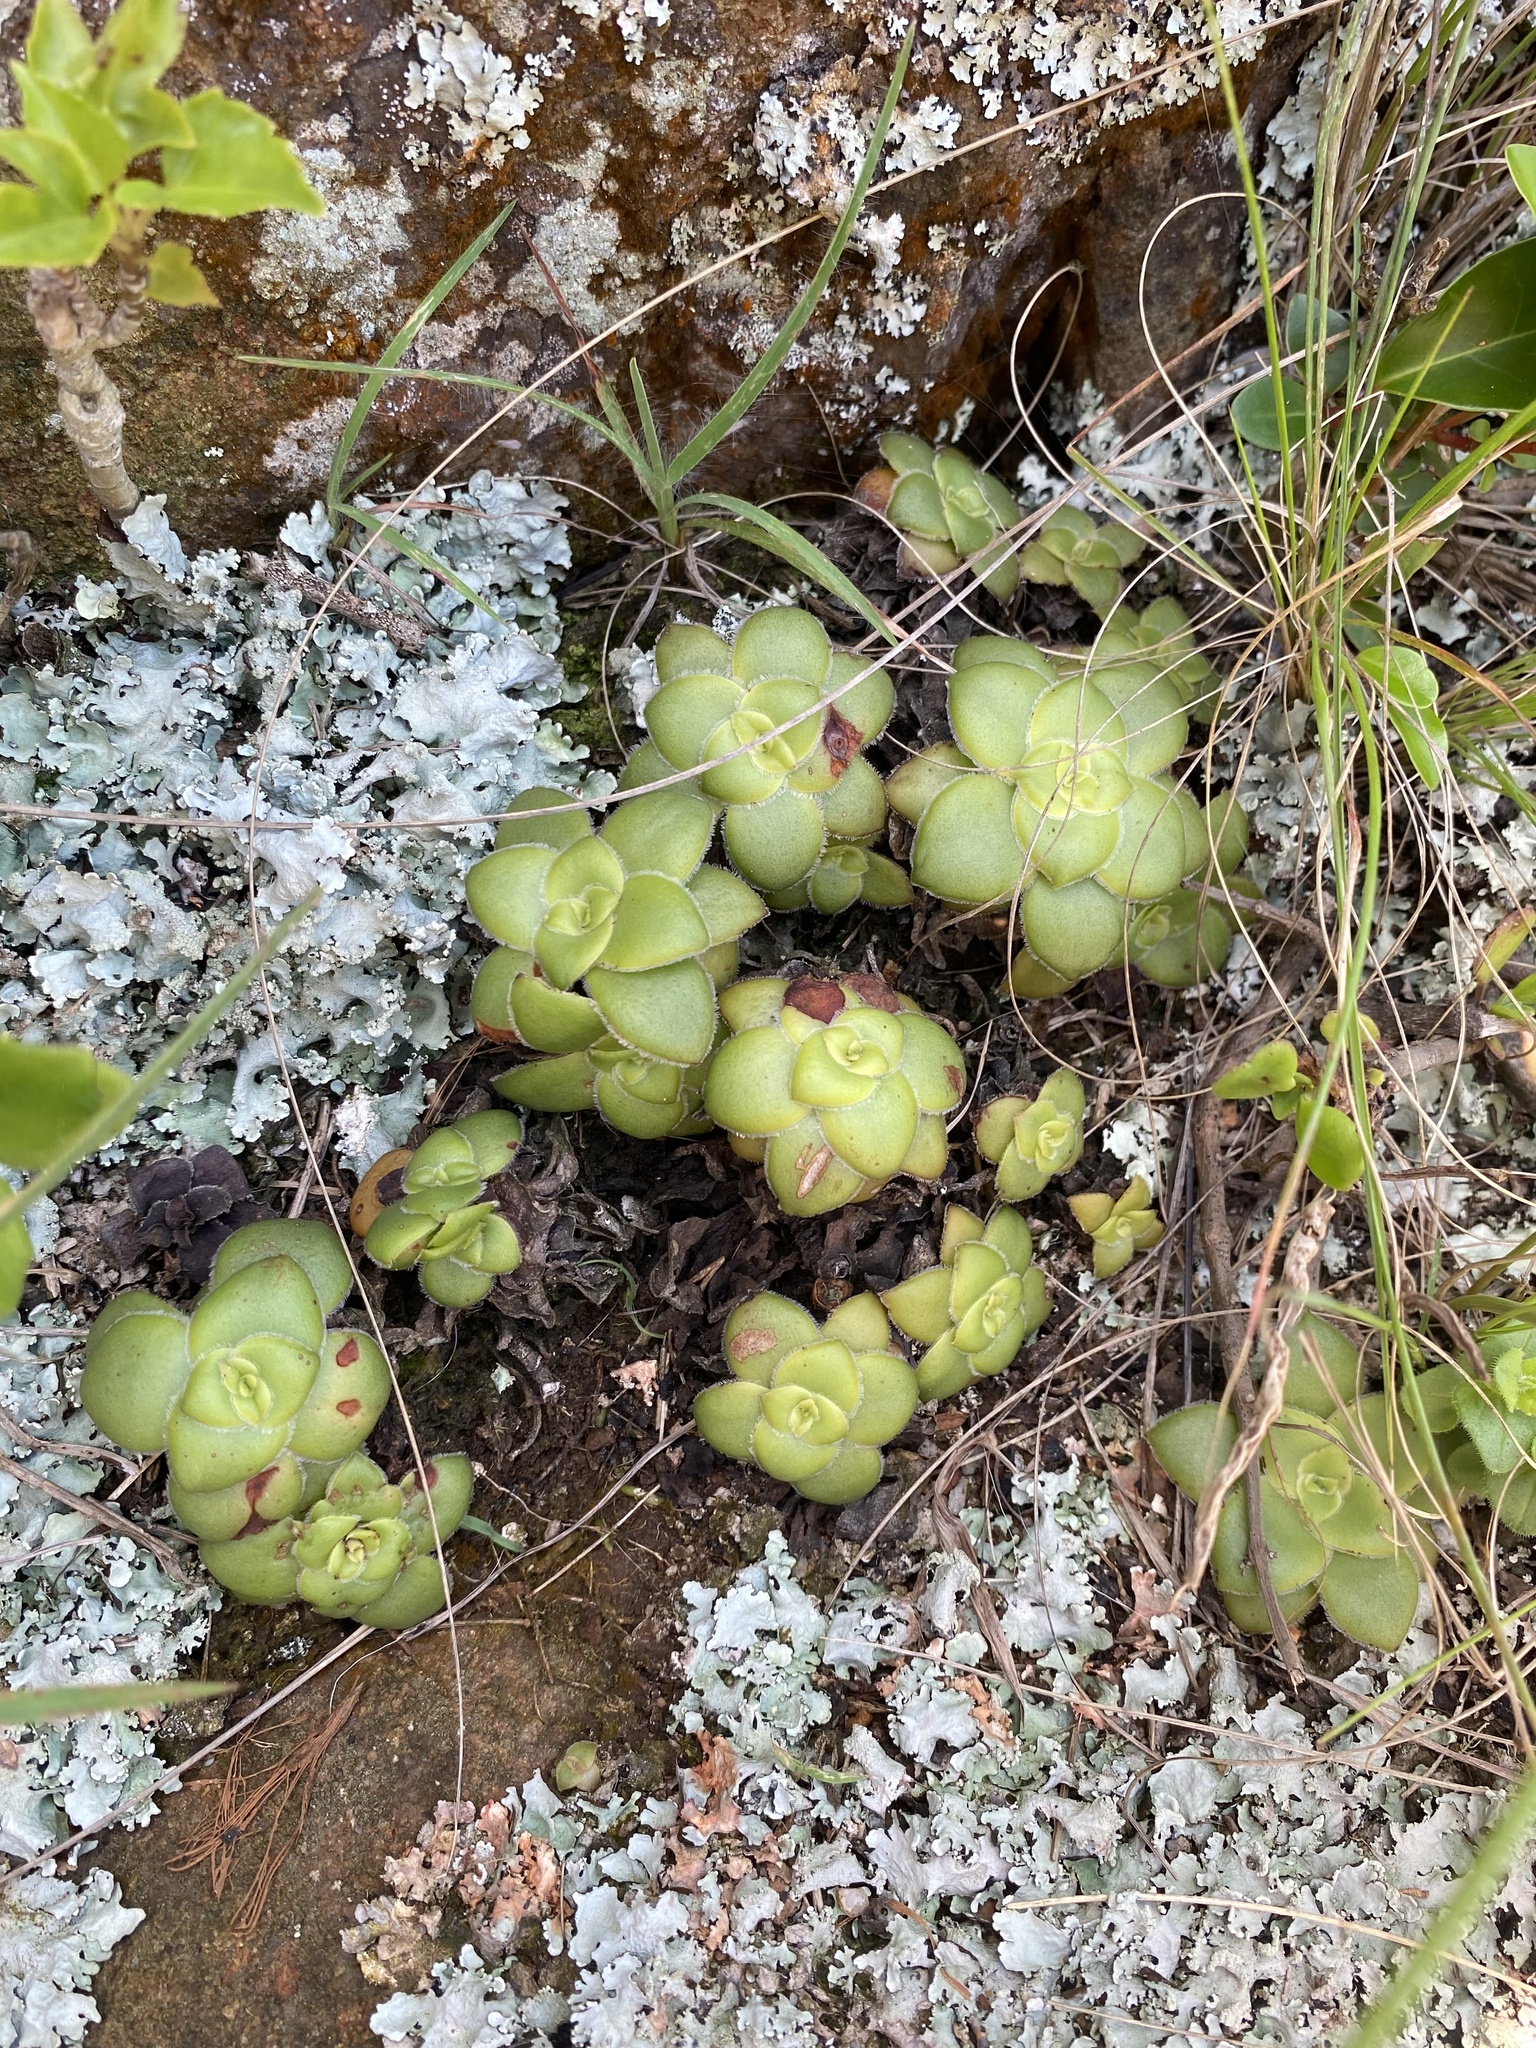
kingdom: Plantae
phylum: Tracheophyta
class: Magnoliopsida
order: Saxifragales
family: Crassulaceae
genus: Crassula
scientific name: Crassula orbicularis
